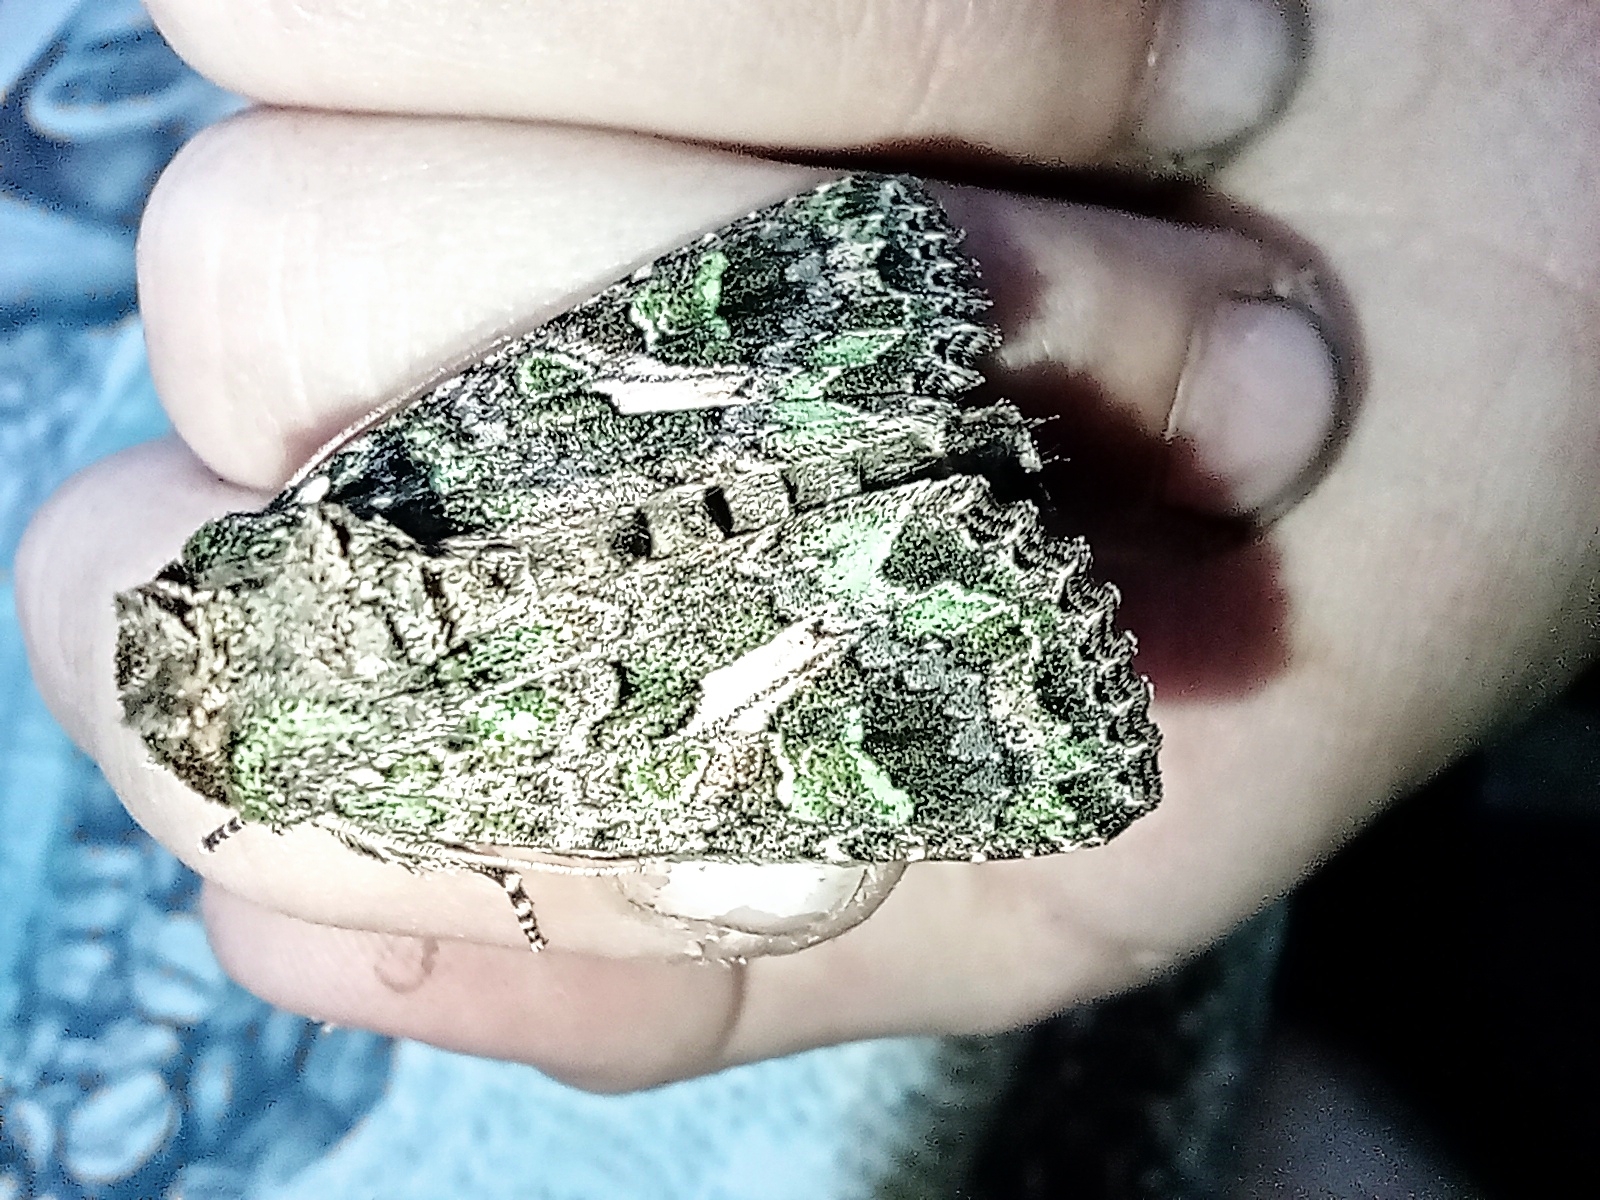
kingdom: Animalia
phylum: Arthropoda
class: Insecta
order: Lepidoptera
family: Noctuidae
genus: Trachea
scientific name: Trachea atriplicis
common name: Orache moth
